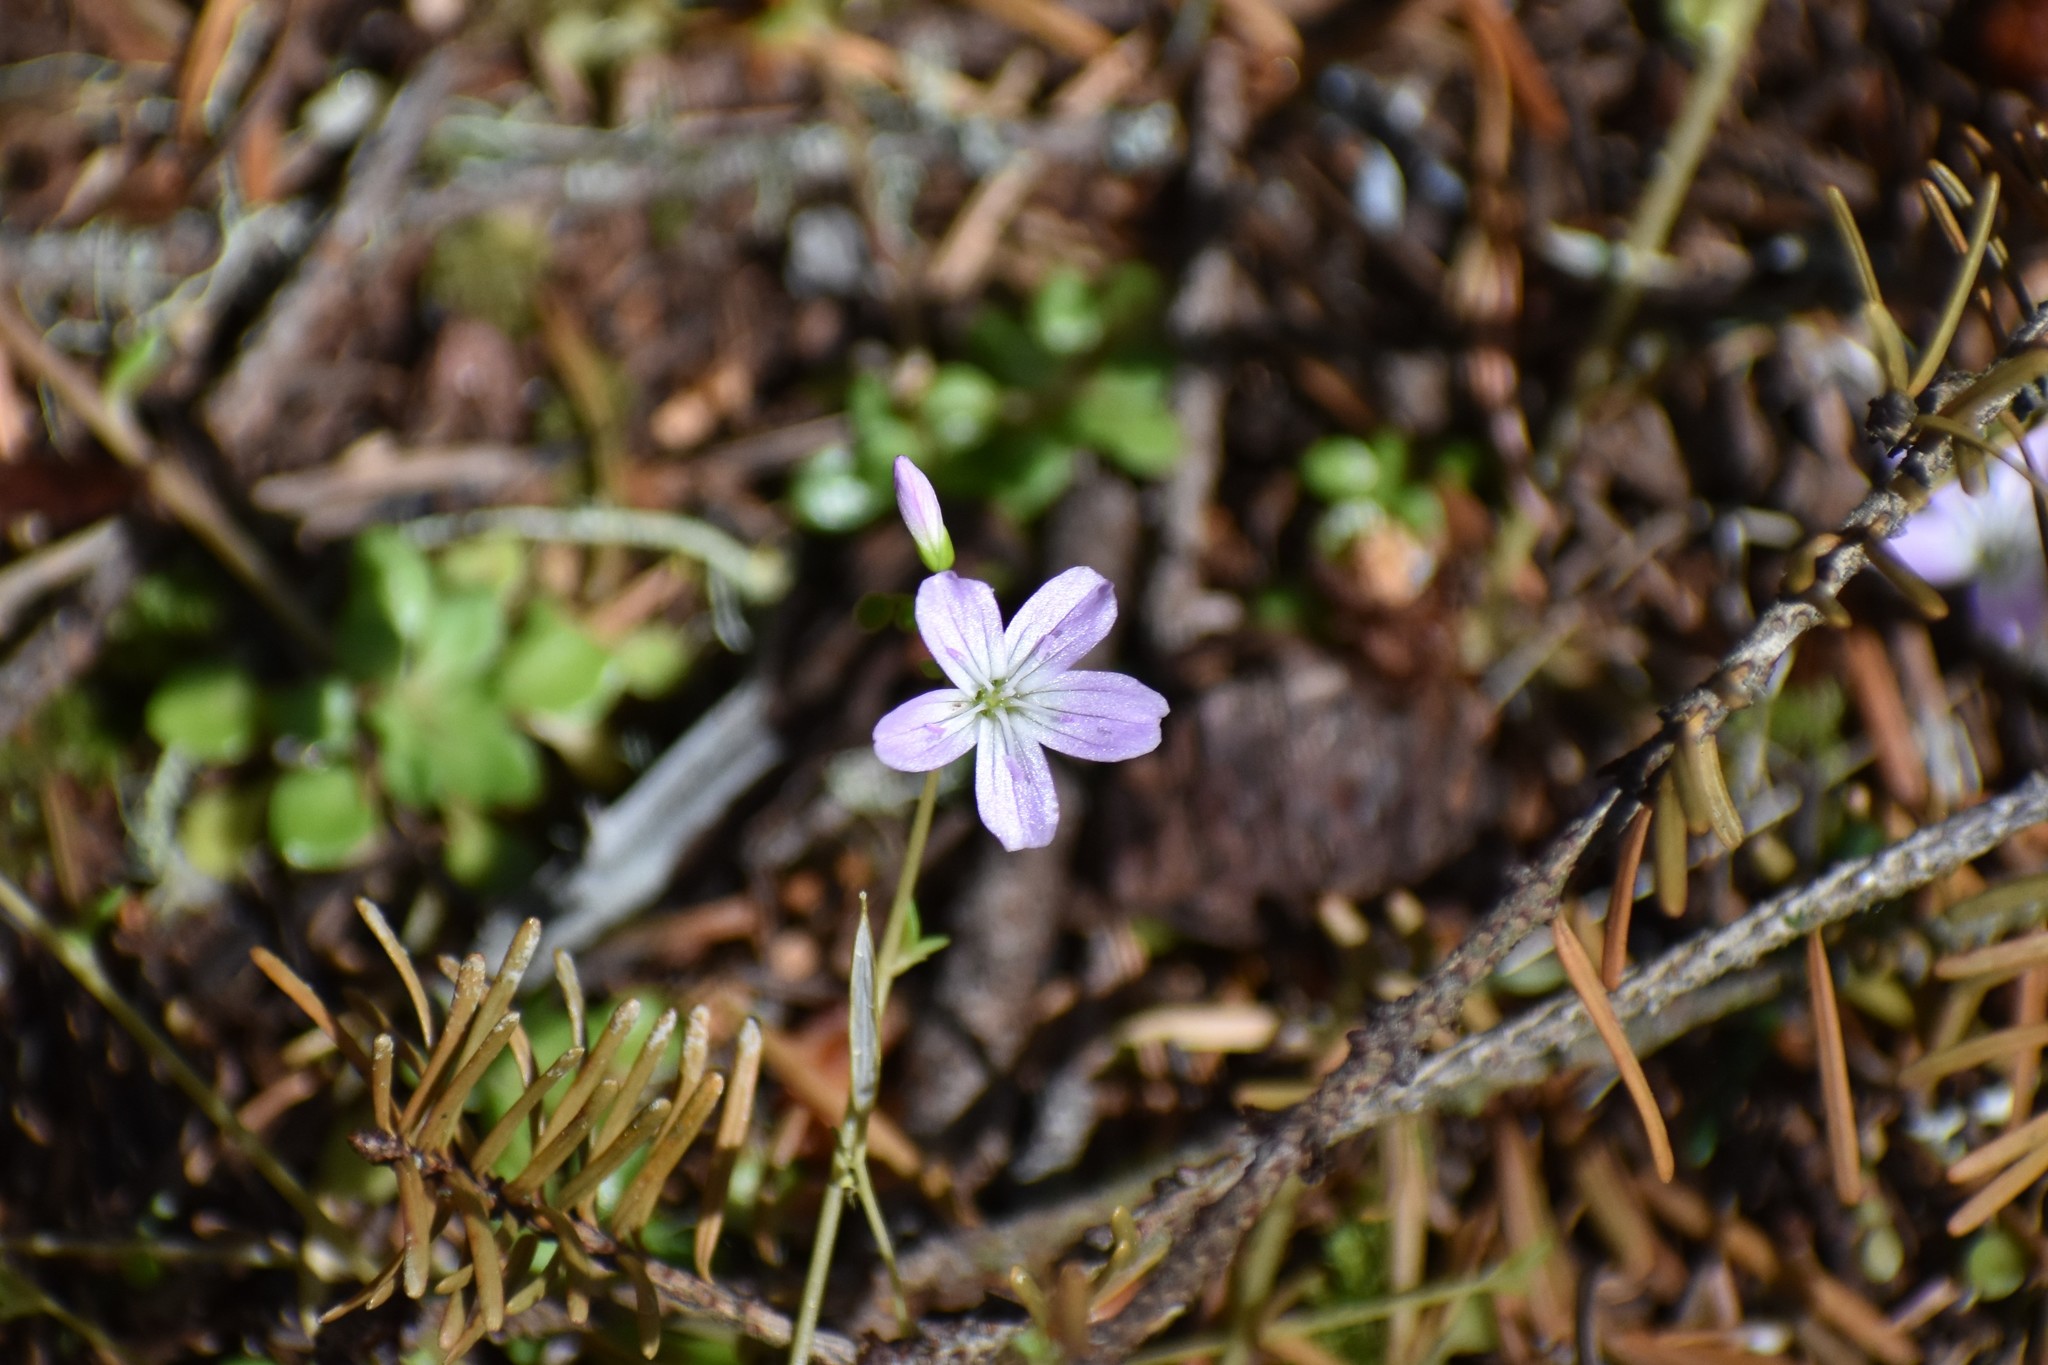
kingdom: Plantae
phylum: Tracheophyta
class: Magnoliopsida
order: Caryophyllales
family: Montiaceae
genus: Montia
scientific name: Montia parvifolia
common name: Small-leaved blinks
